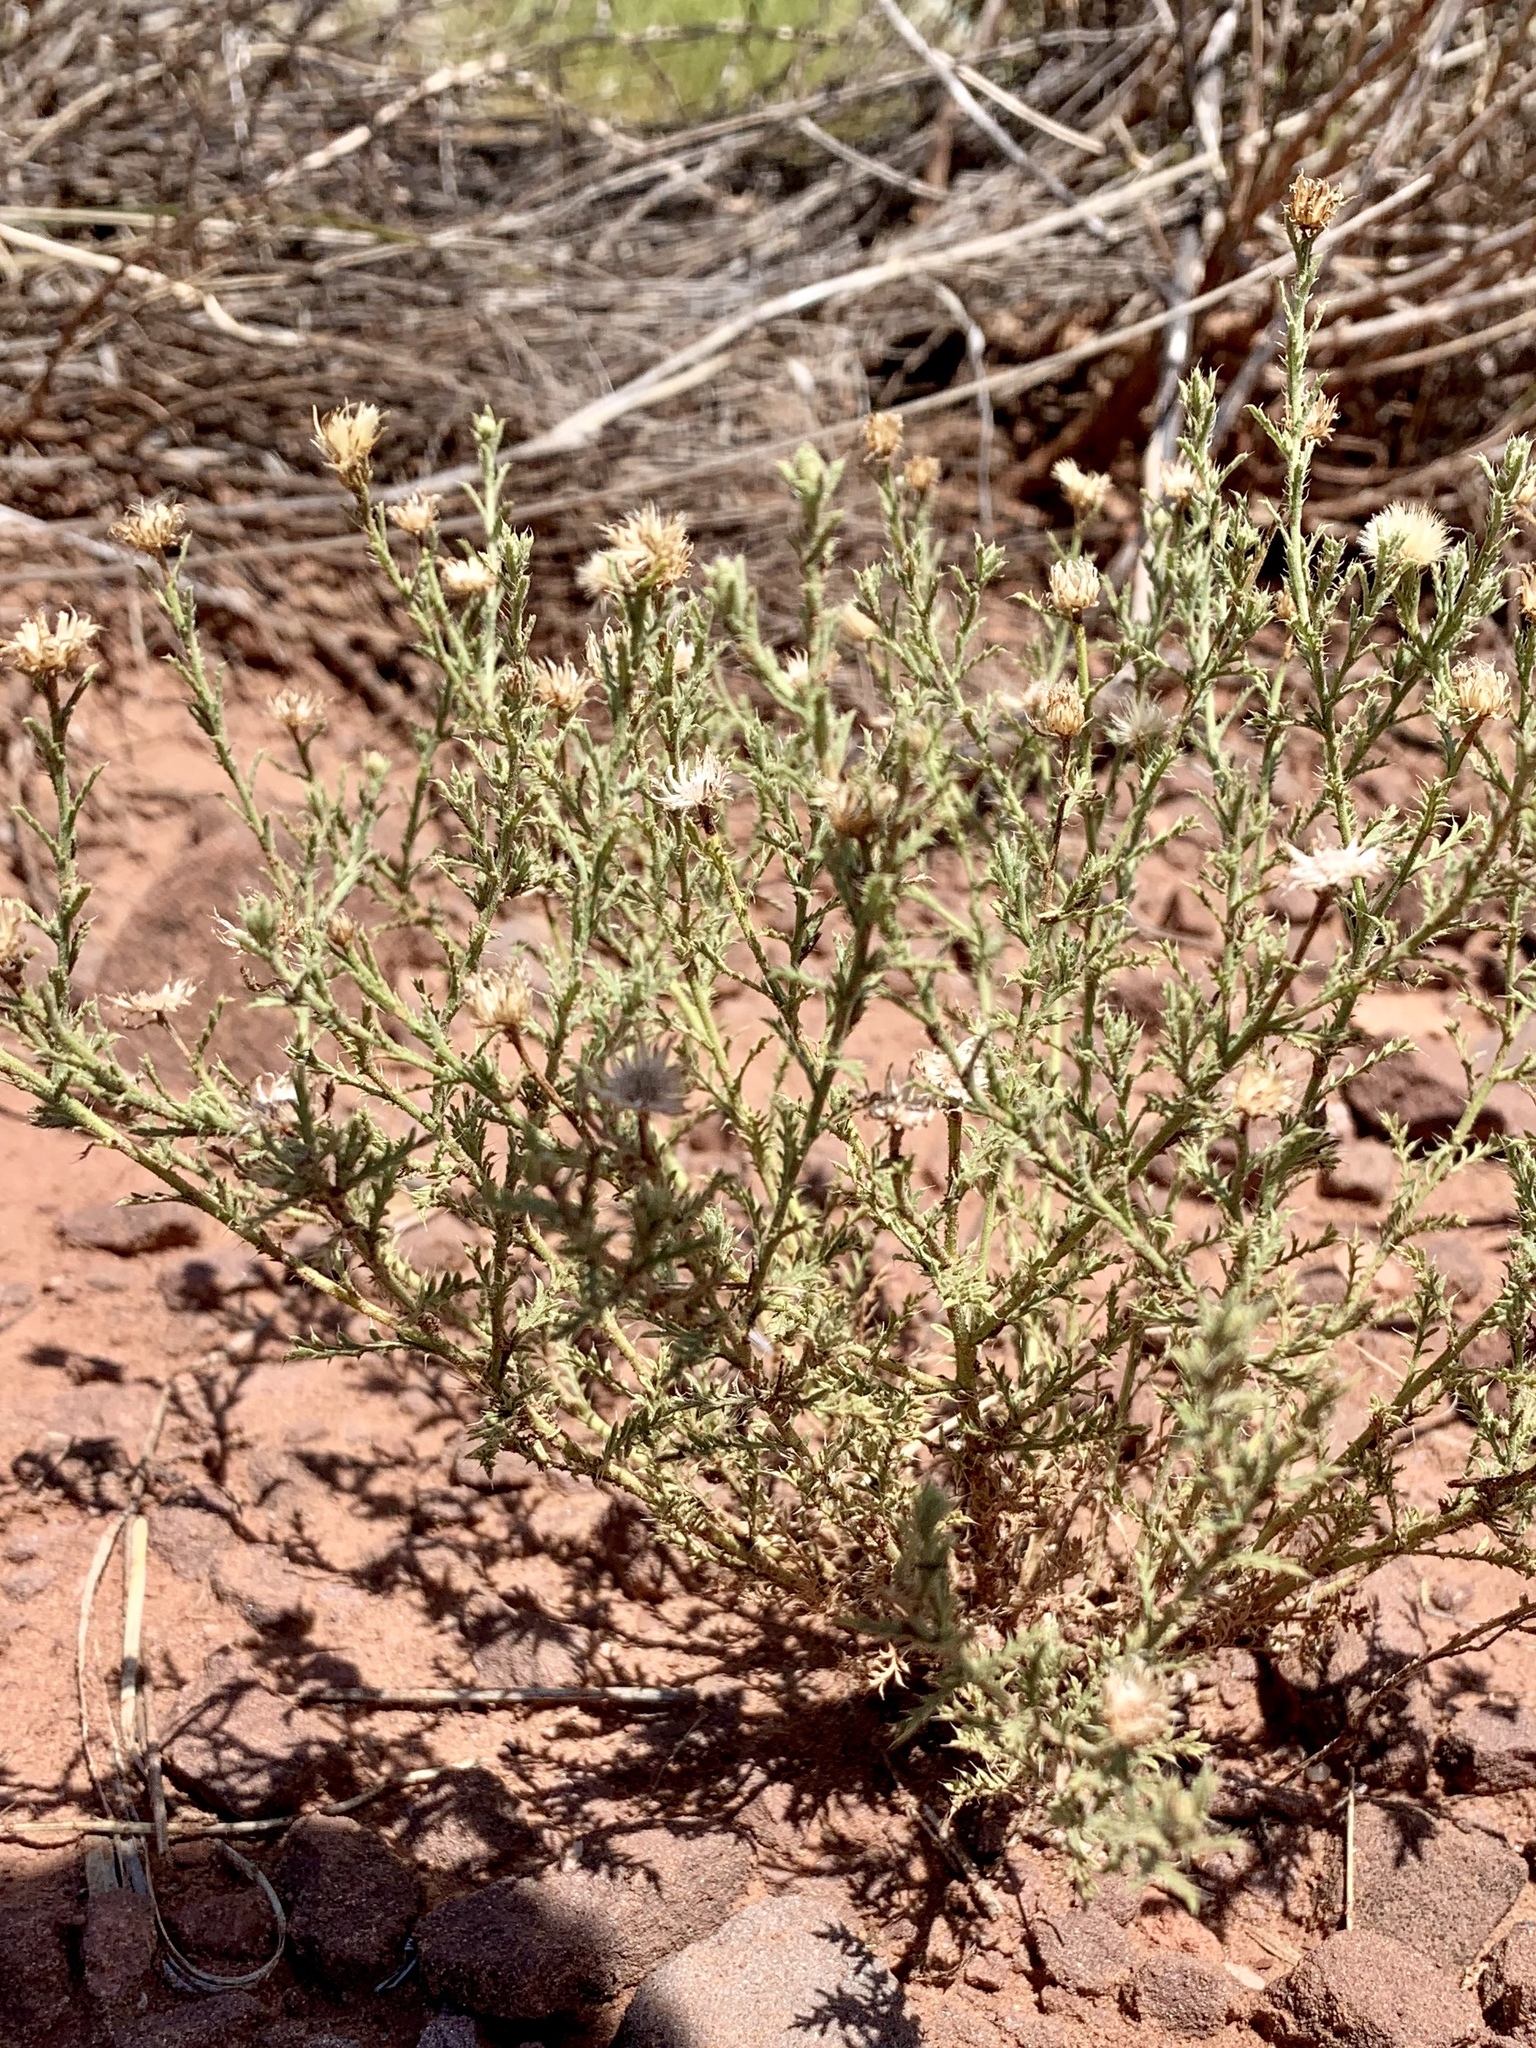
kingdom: Plantae
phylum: Tracheophyta
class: Magnoliopsida
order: Asterales
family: Asteraceae
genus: Xanthisma
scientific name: Xanthisma spinulosum
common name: Spiny goldenweed
